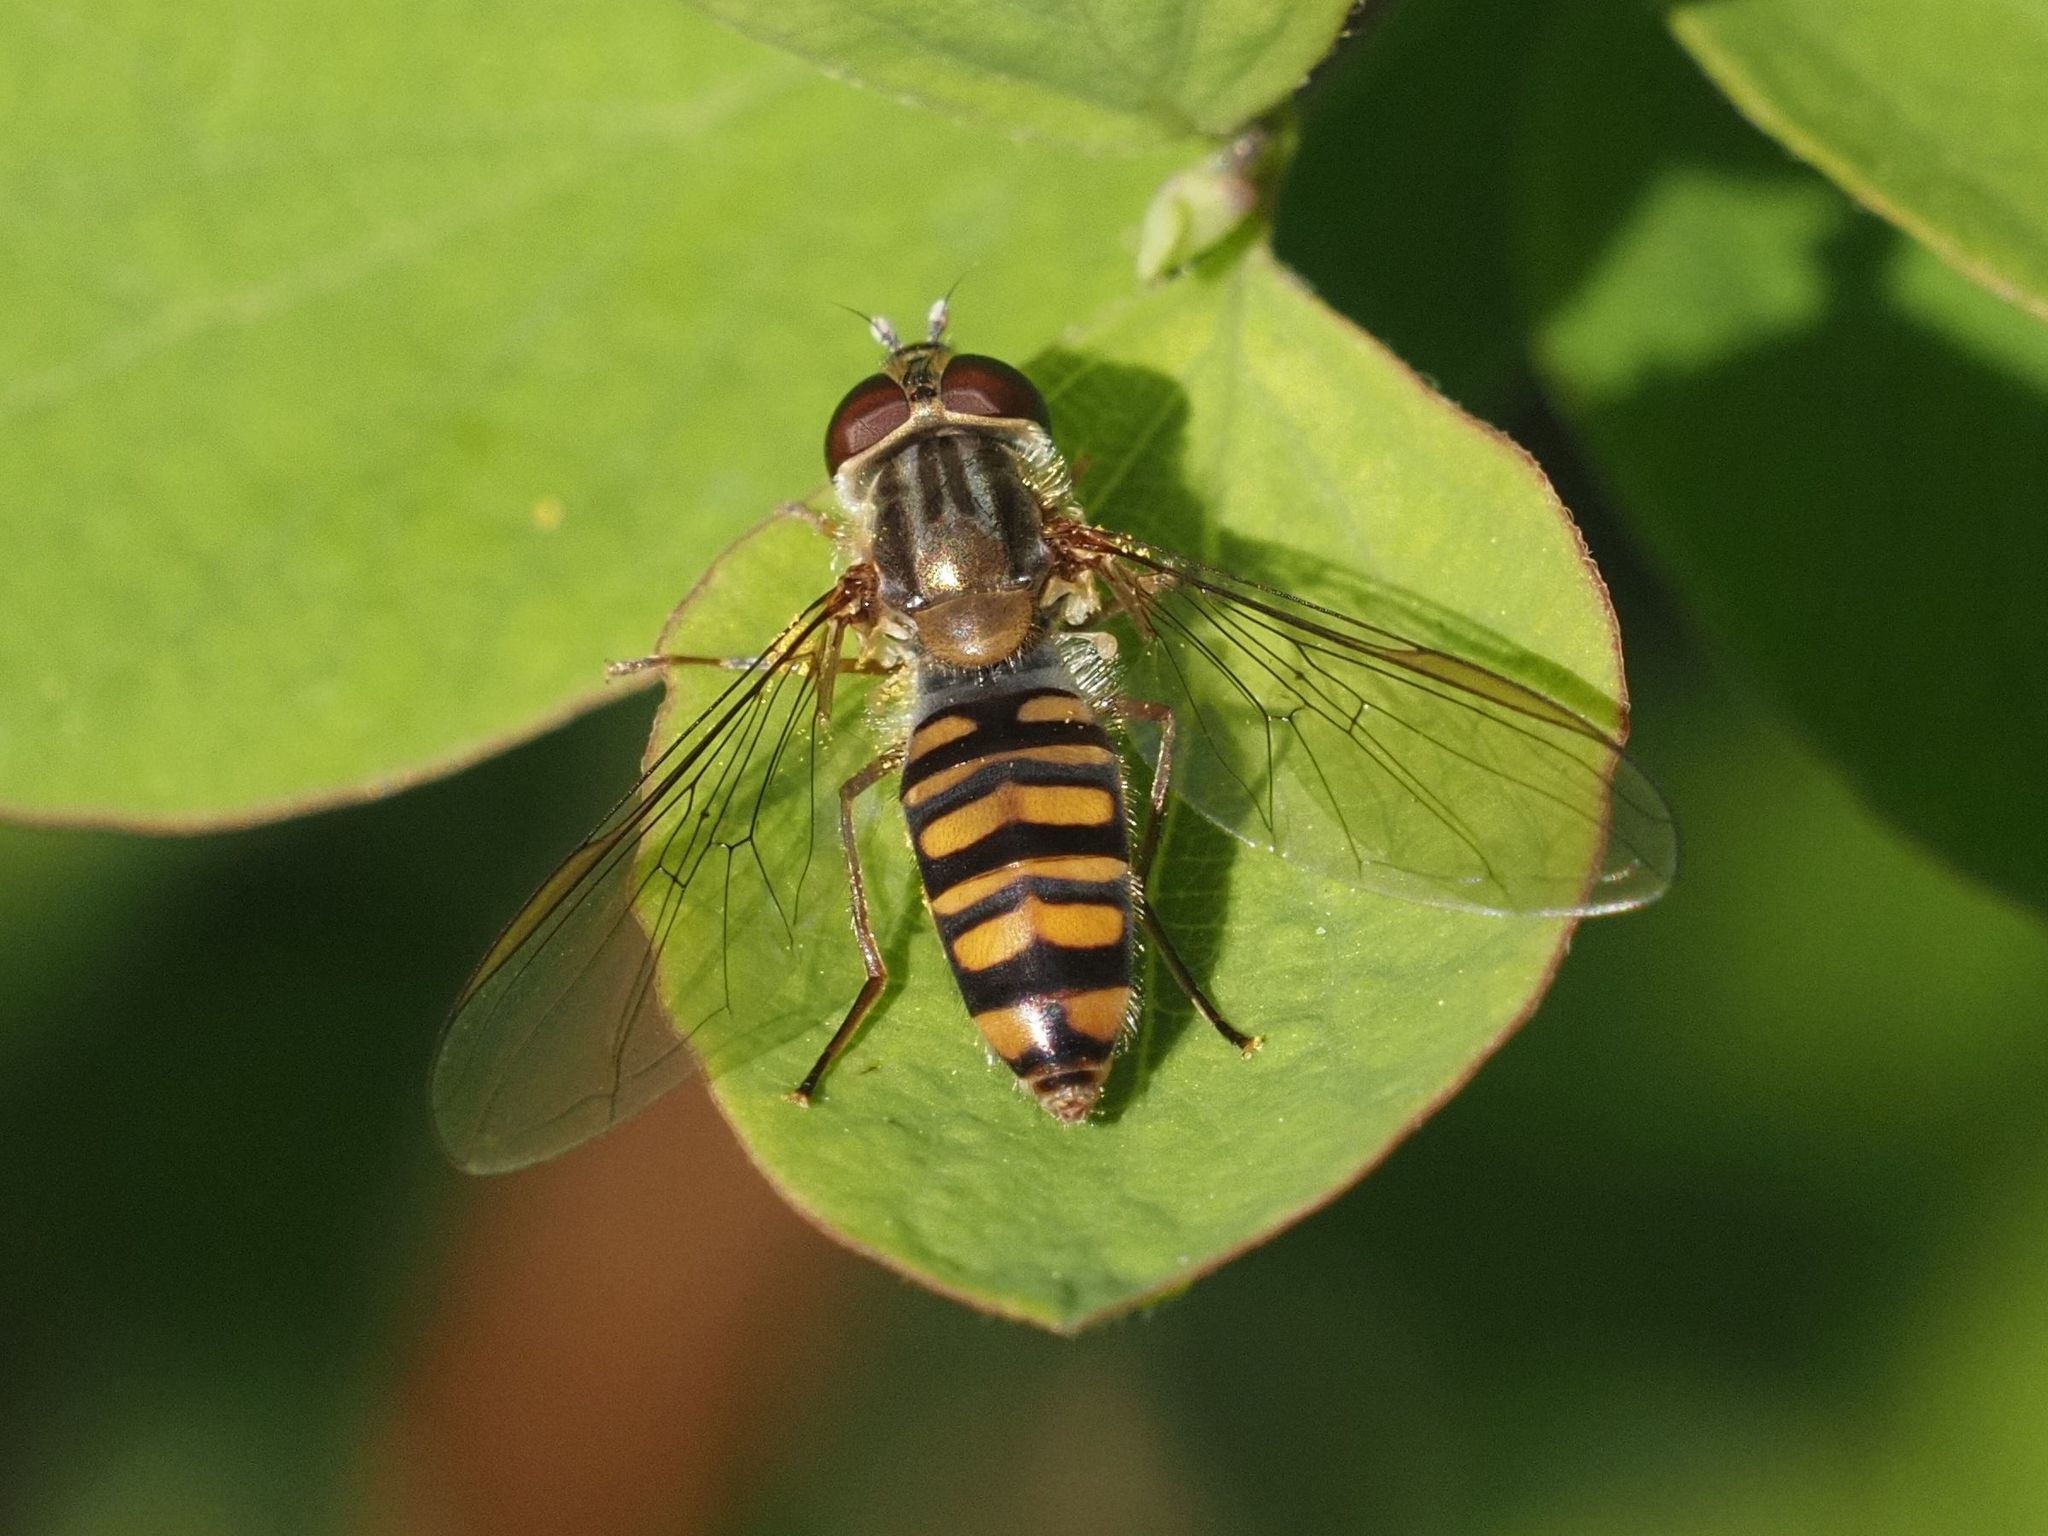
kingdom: Animalia
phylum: Arthropoda
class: Insecta
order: Diptera
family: Syrphidae
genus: Episyrphus
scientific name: Episyrphus balteatus
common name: Marmalade hoverfly
